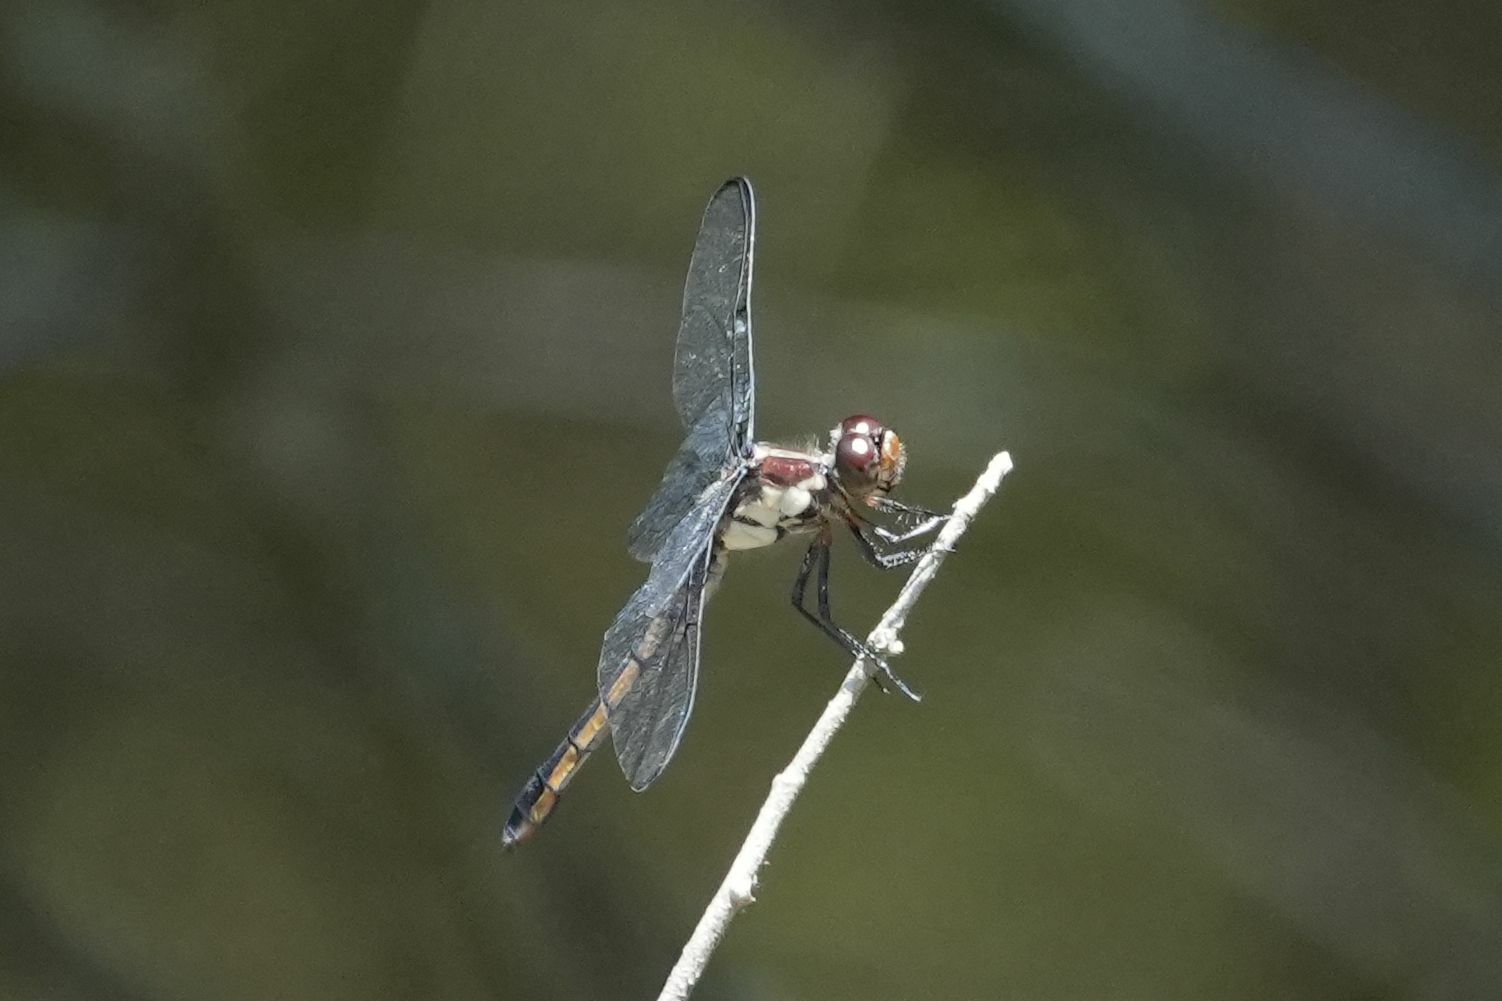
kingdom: Animalia
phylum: Arthropoda
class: Insecta
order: Odonata
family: Libellulidae
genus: Libellula
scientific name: Libellula incesta
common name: Slaty skimmer
